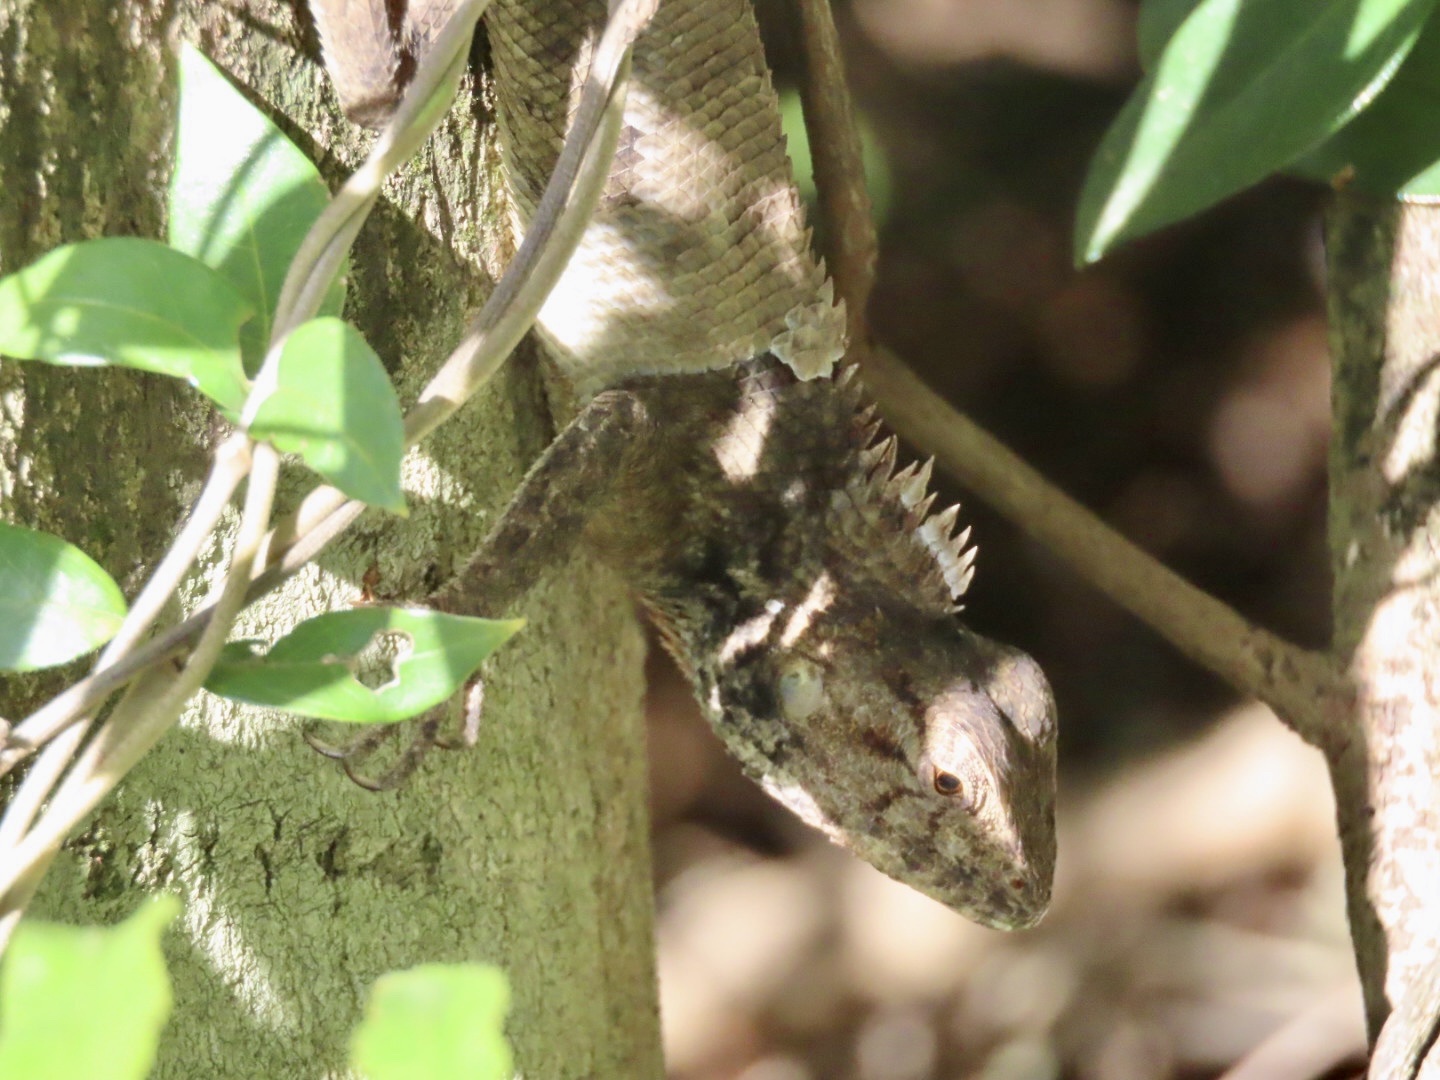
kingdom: Animalia
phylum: Chordata
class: Squamata
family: Agamidae
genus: Calotes
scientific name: Calotes versicolor
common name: Oriental garden lizard
